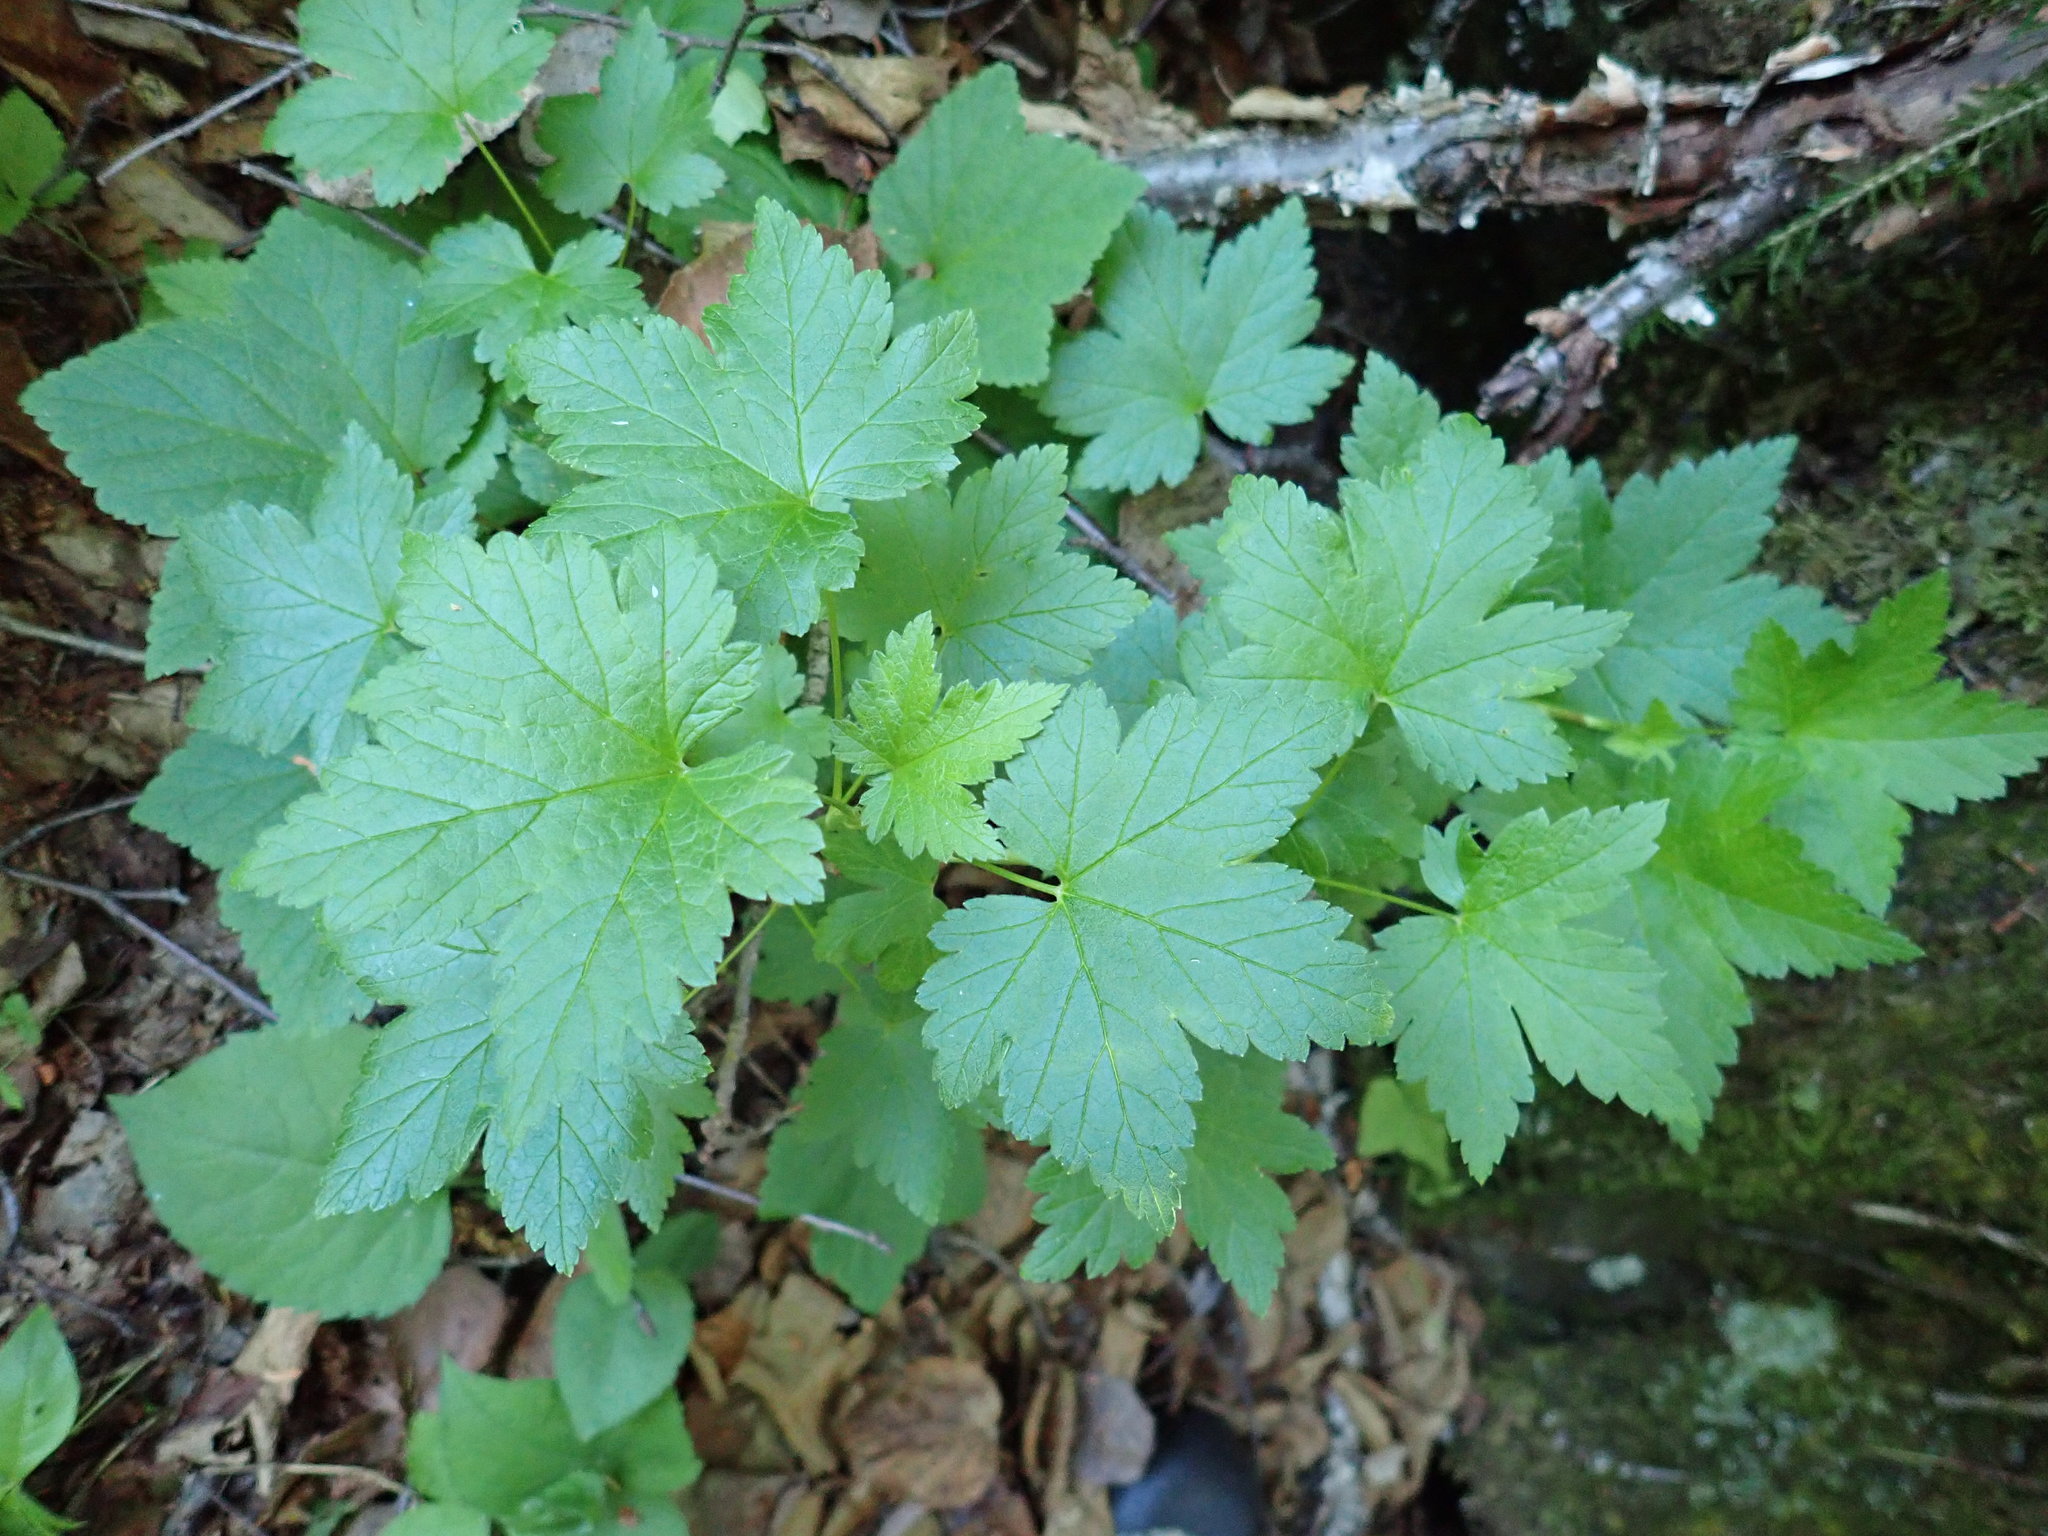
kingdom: Plantae
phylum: Tracheophyta
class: Magnoliopsida
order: Saxifragales
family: Grossulariaceae
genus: Ribes
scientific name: Ribes glandulosum
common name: Skunk currant
